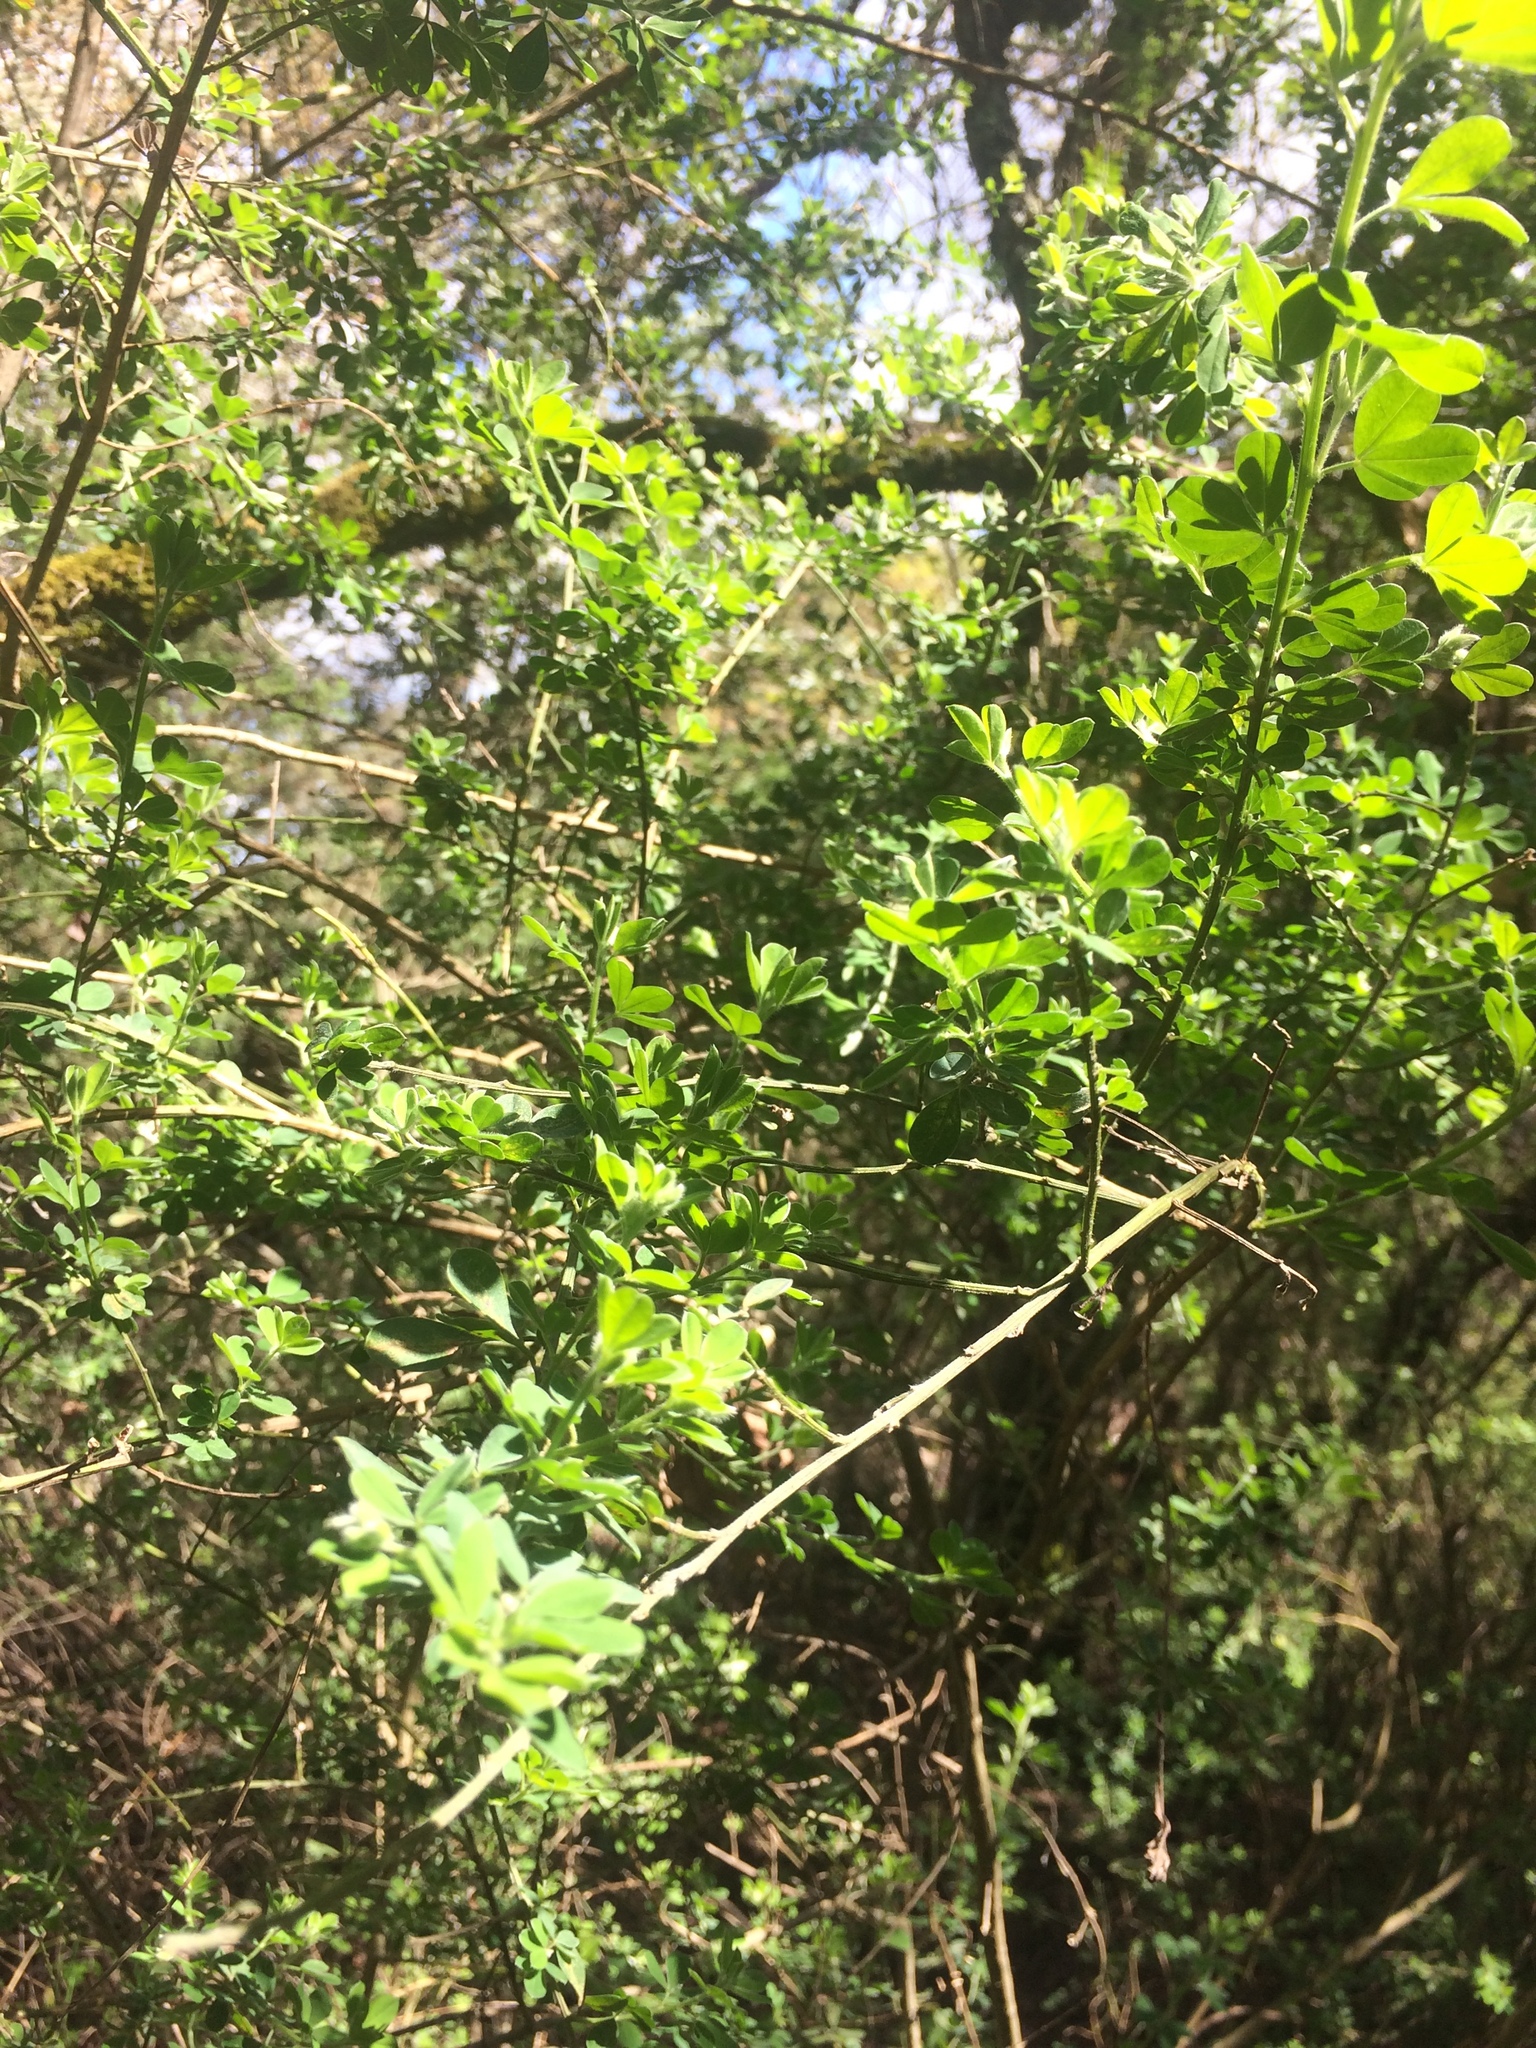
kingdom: Plantae
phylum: Tracheophyta
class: Magnoliopsida
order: Fabales
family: Fabaceae
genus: Genista
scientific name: Genista monspessulana
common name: Montpellier broom
